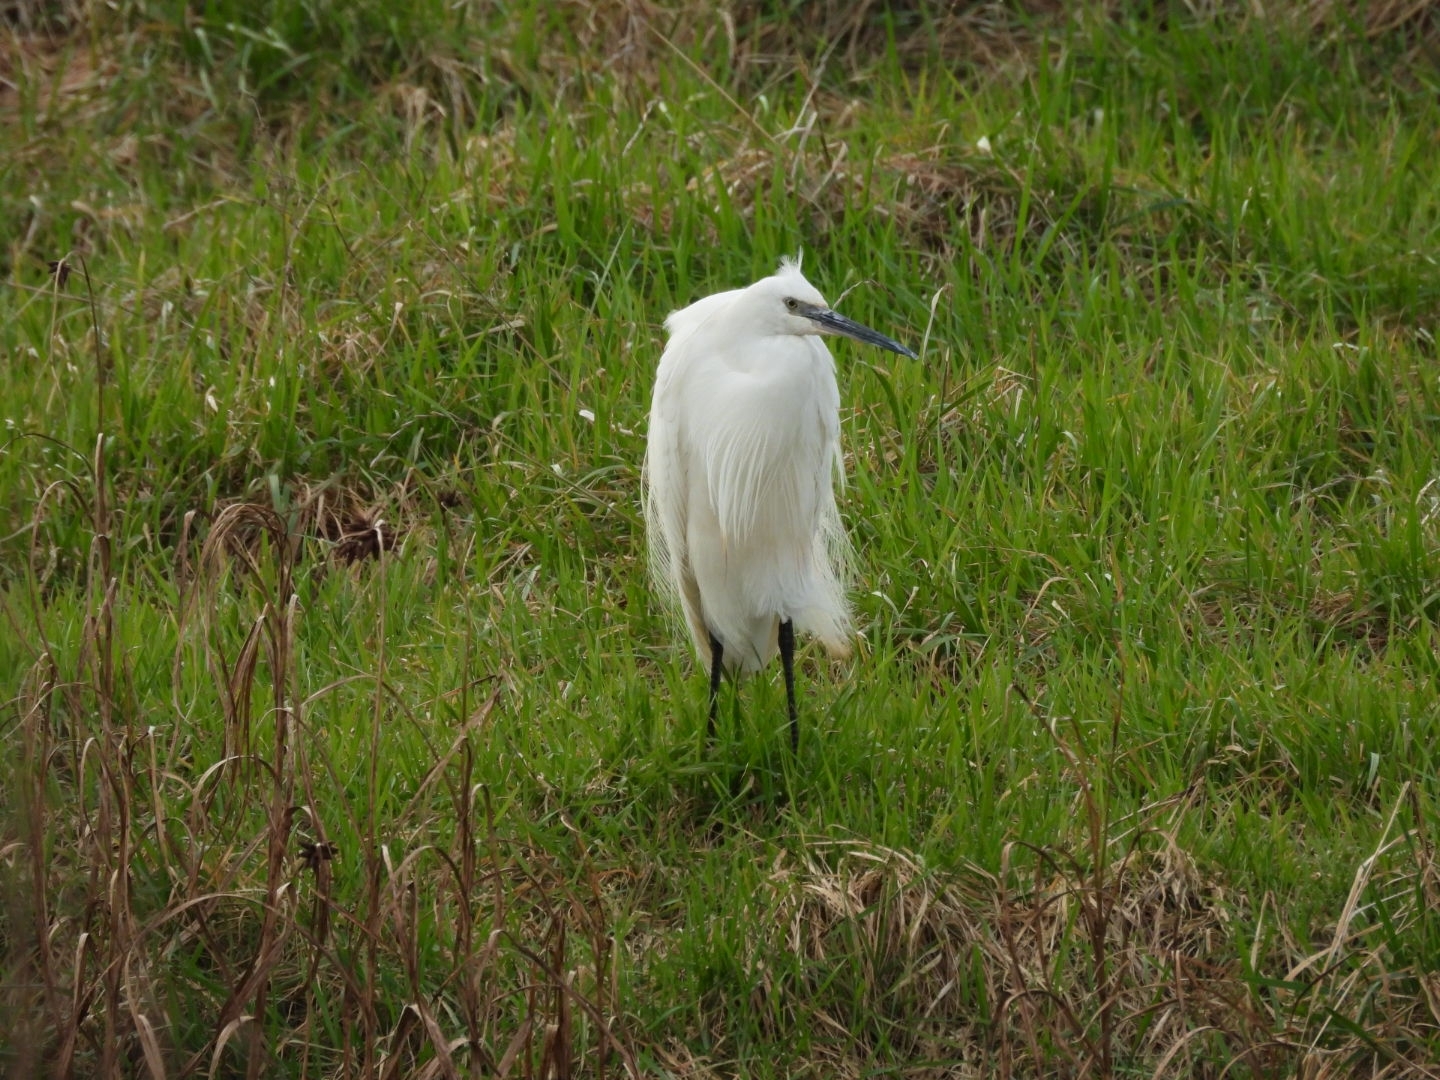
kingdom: Animalia
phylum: Chordata
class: Aves
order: Pelecaniformes
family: Ardeidae
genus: Egretta
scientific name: Egretta garzetta
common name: Little egret
